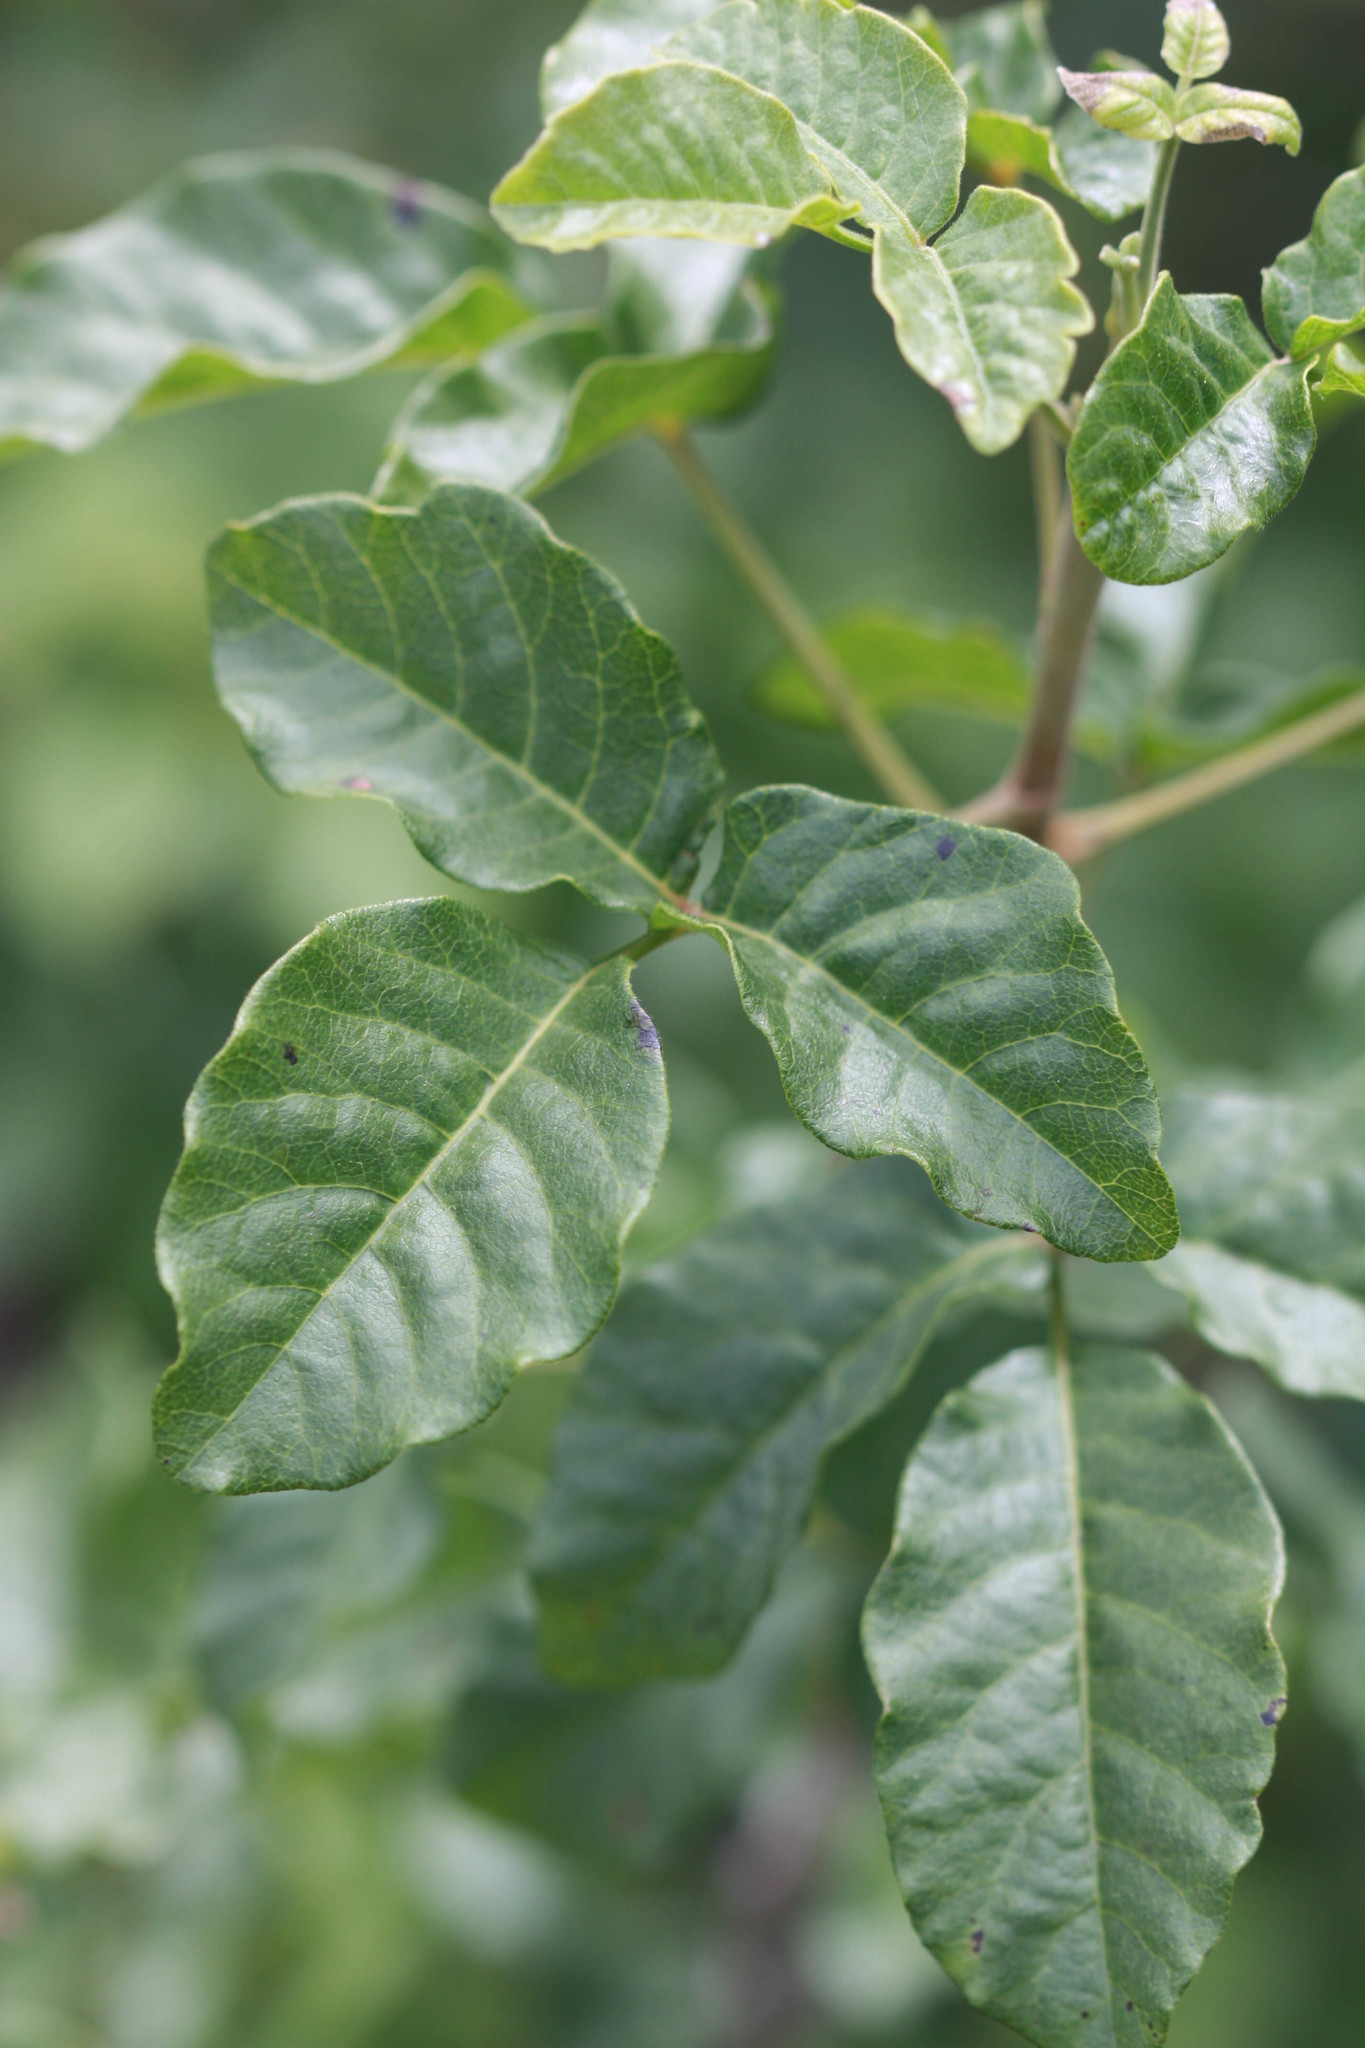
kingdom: Plantae
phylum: Tracheophyta
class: Magnoliopsida
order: Sapindales
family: Anacardiaceae
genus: Toxicodendron
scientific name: Toxicodendron diversilobum
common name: Pacific poison-oak
